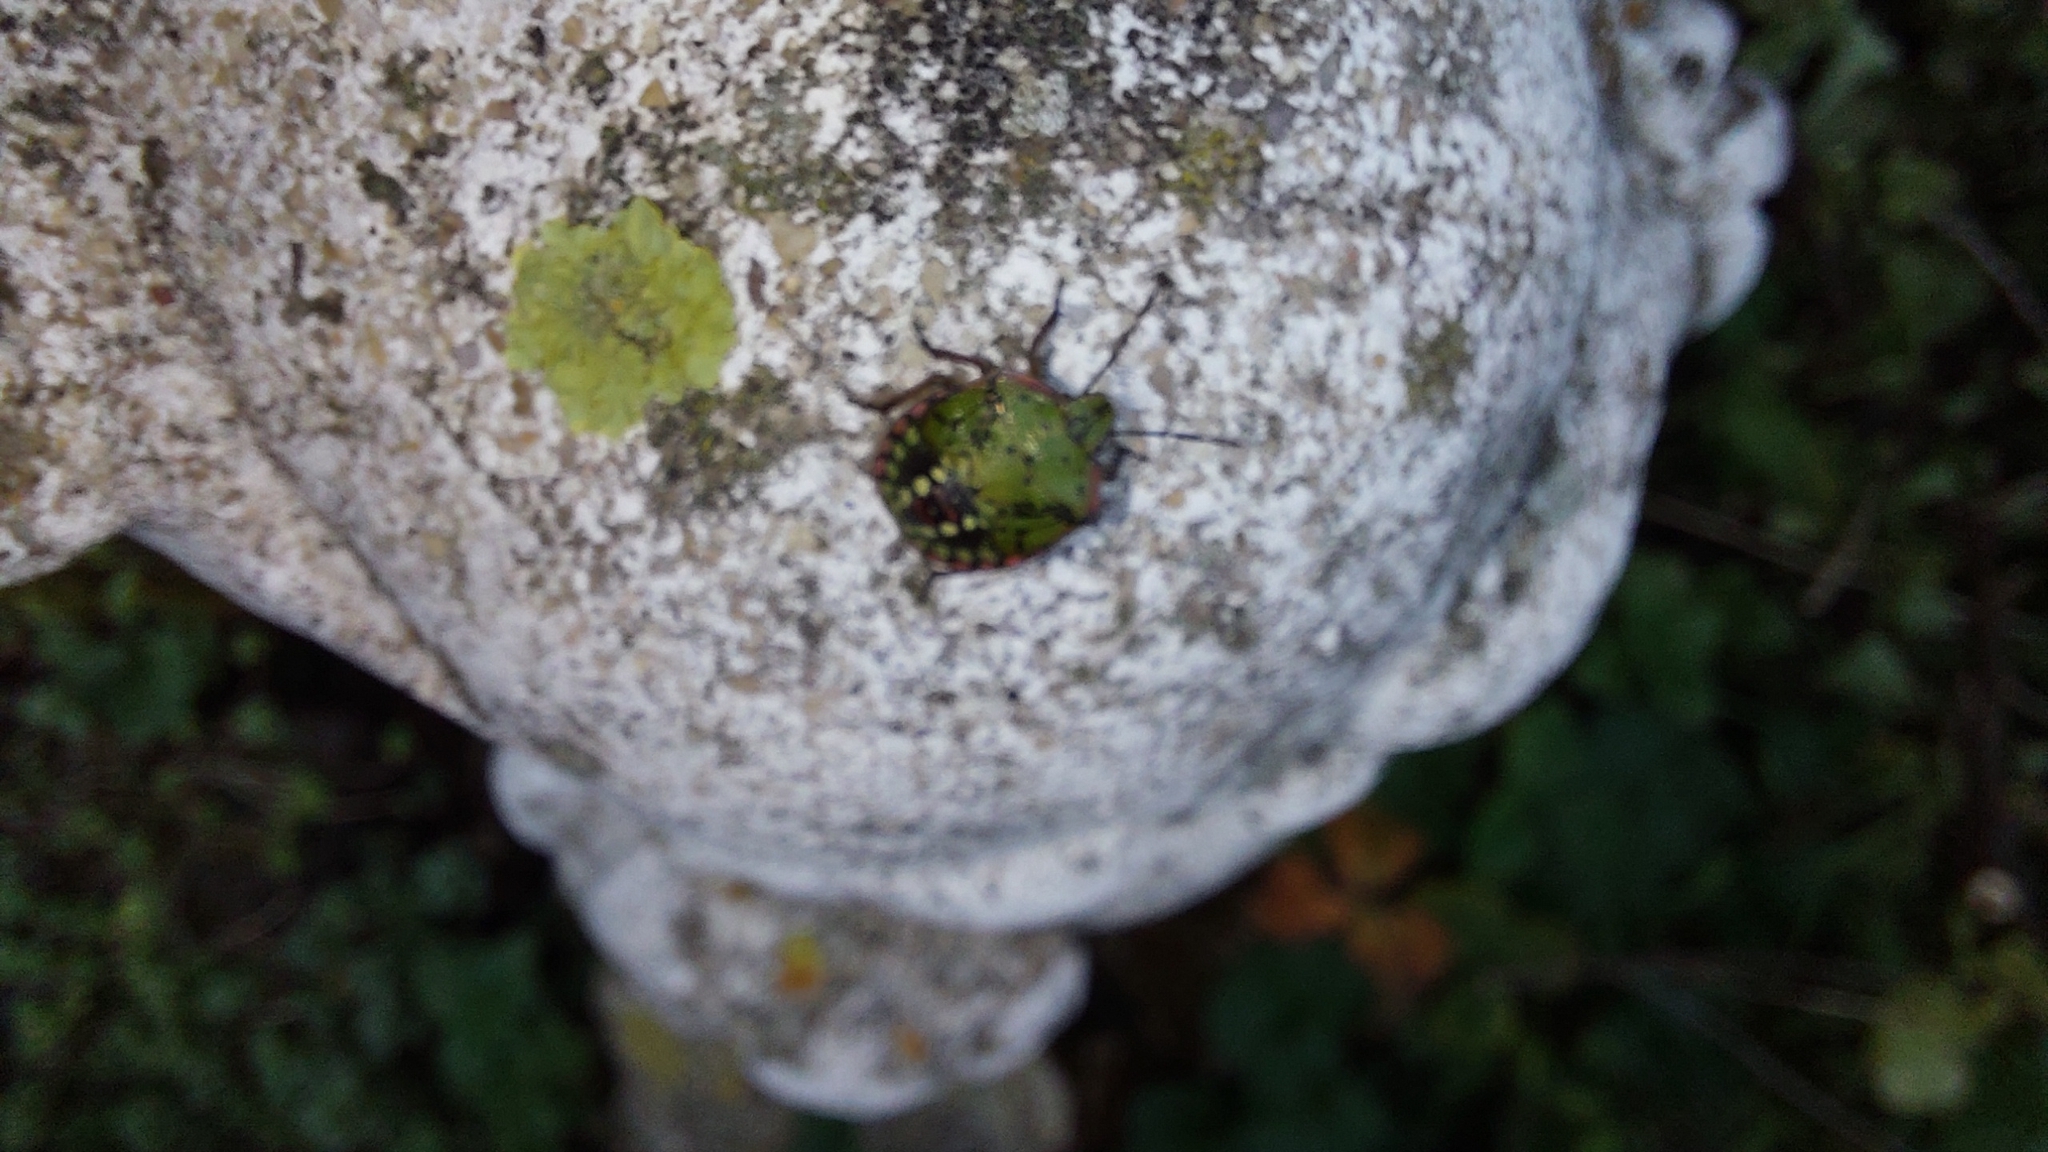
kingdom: Animalia
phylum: Arthropoda
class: Insecta
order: Hemiptera
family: Pentatomidae
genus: Nezara
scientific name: Nezara viridula
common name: Southern green stink bug
